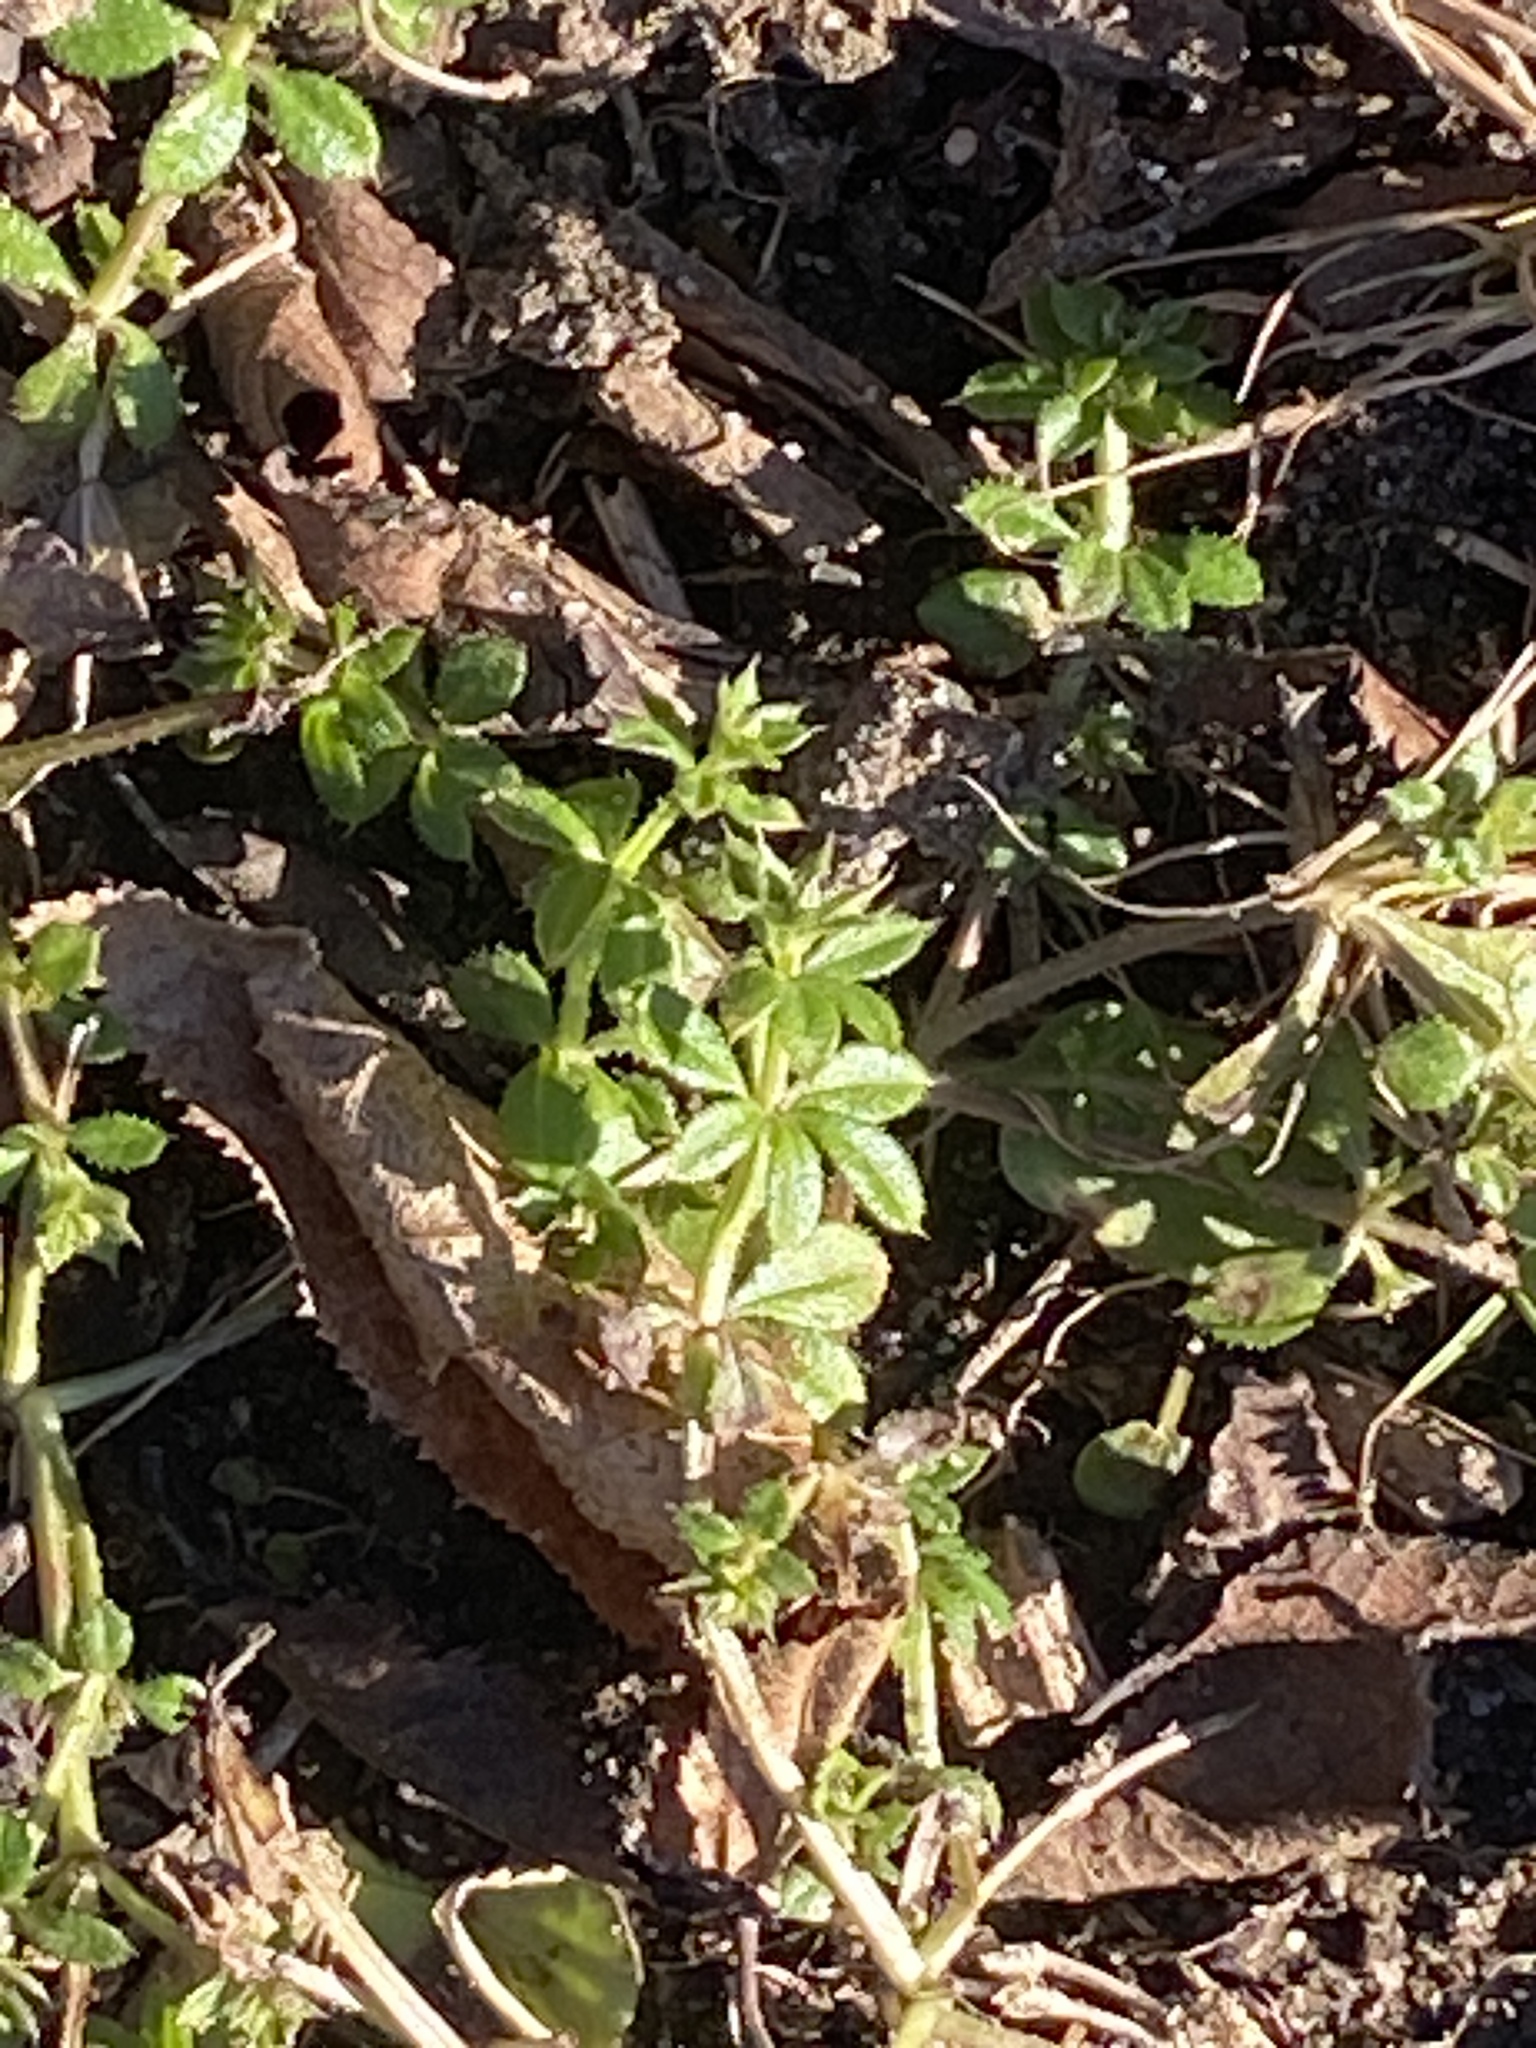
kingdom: Plantae
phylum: Tracheophyta
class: Magnoliopsida
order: Gentianales
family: Rubiaceae
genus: Galium
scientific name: Galium aparine
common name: Cleavers
